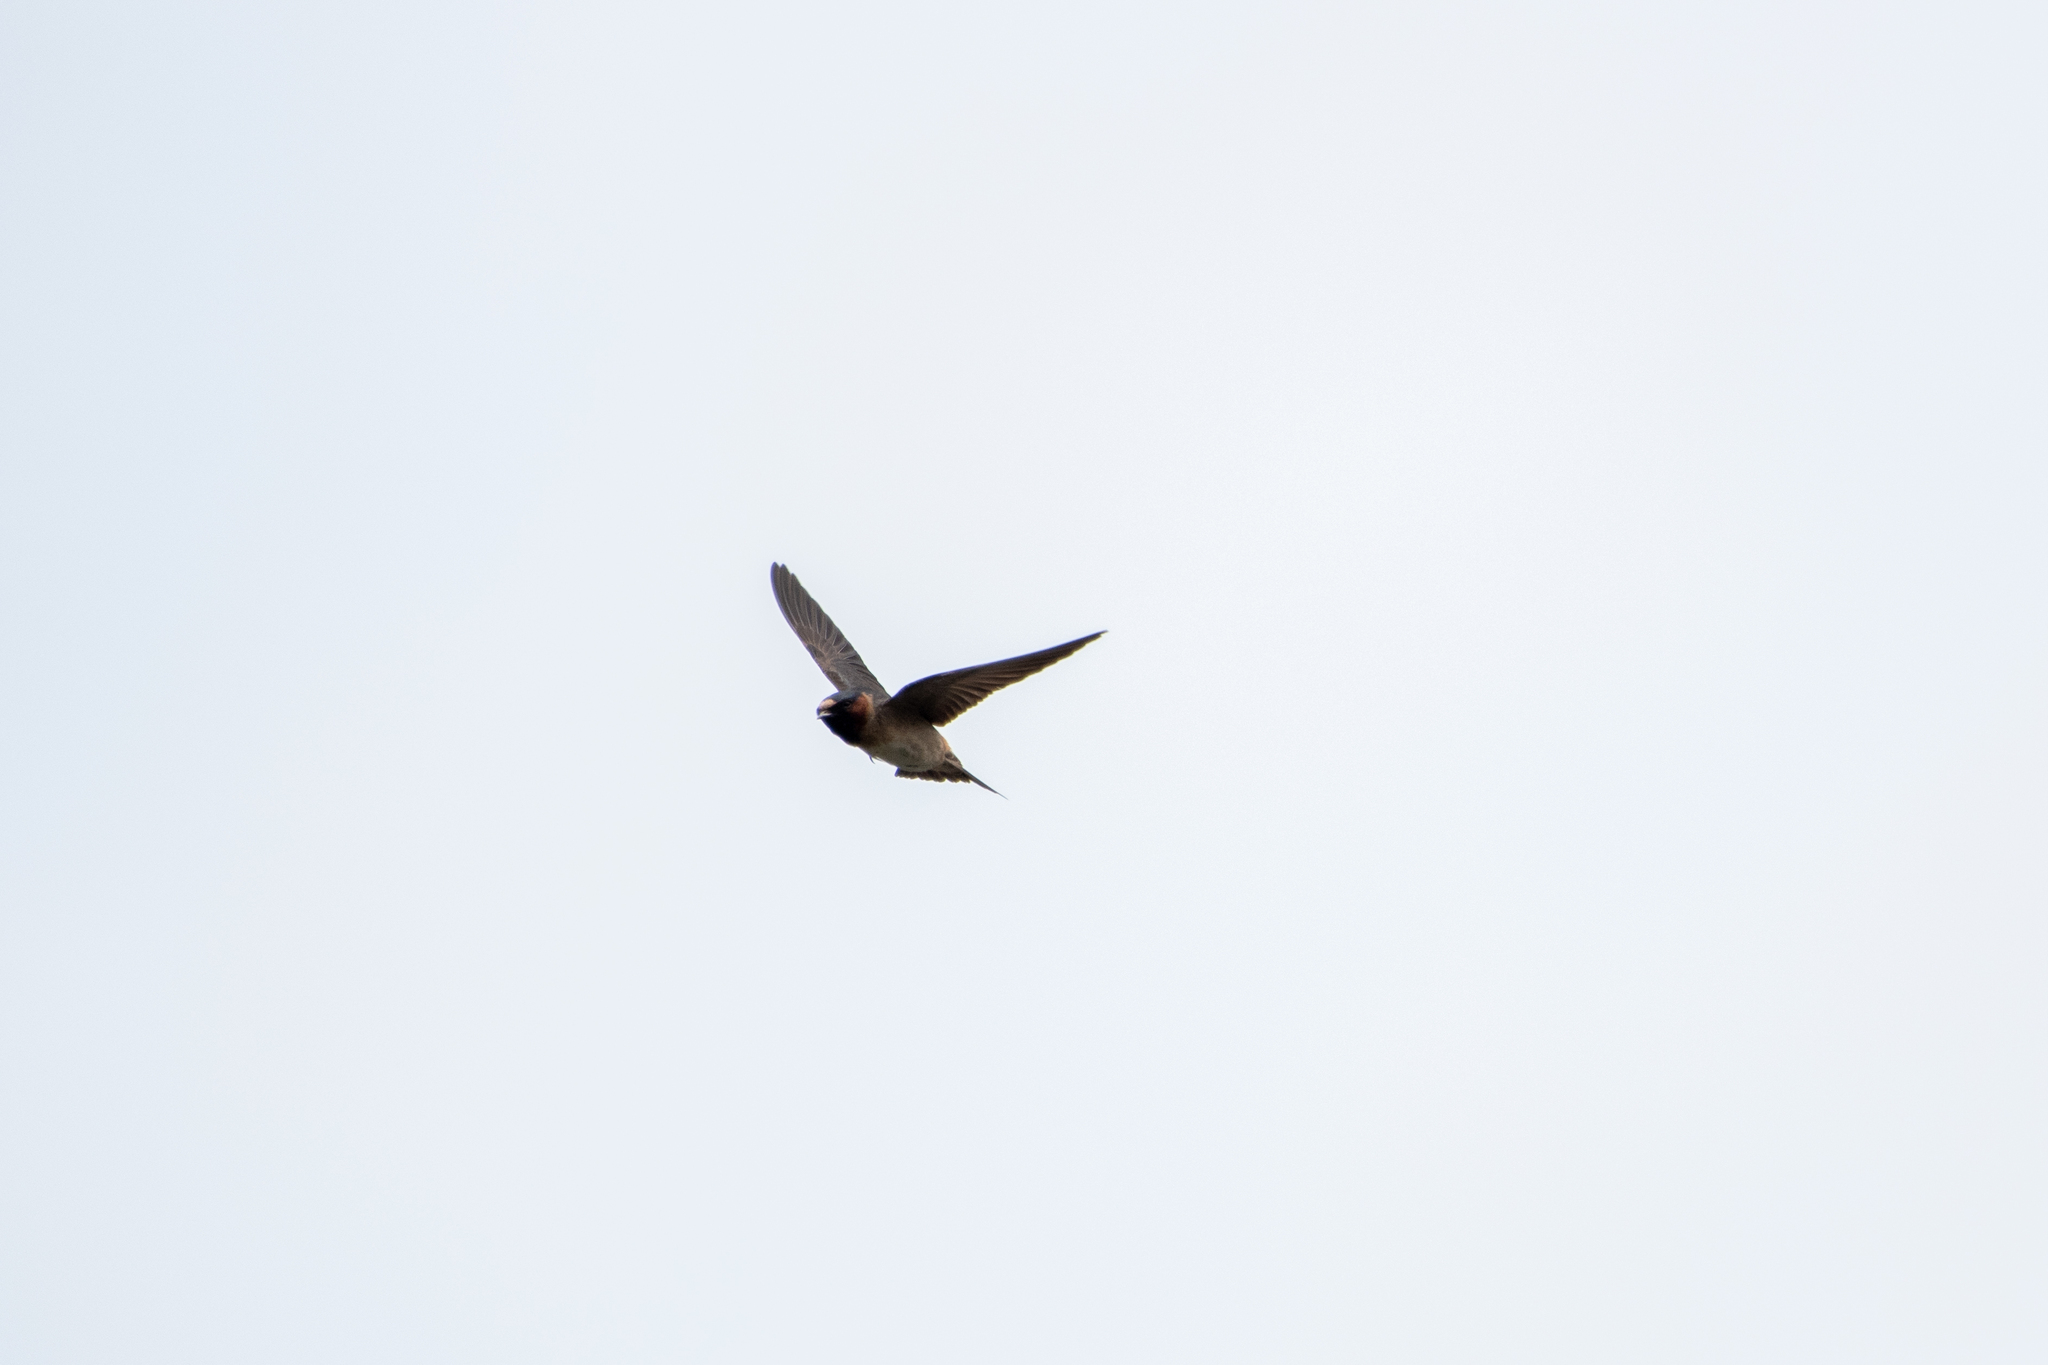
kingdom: Animalia
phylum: Chordata
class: Aves
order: Passeriformes
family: Hirundinidae
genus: Petrochelidon
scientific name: Petrochelidon pyrrhonota
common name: American cliff swallow
